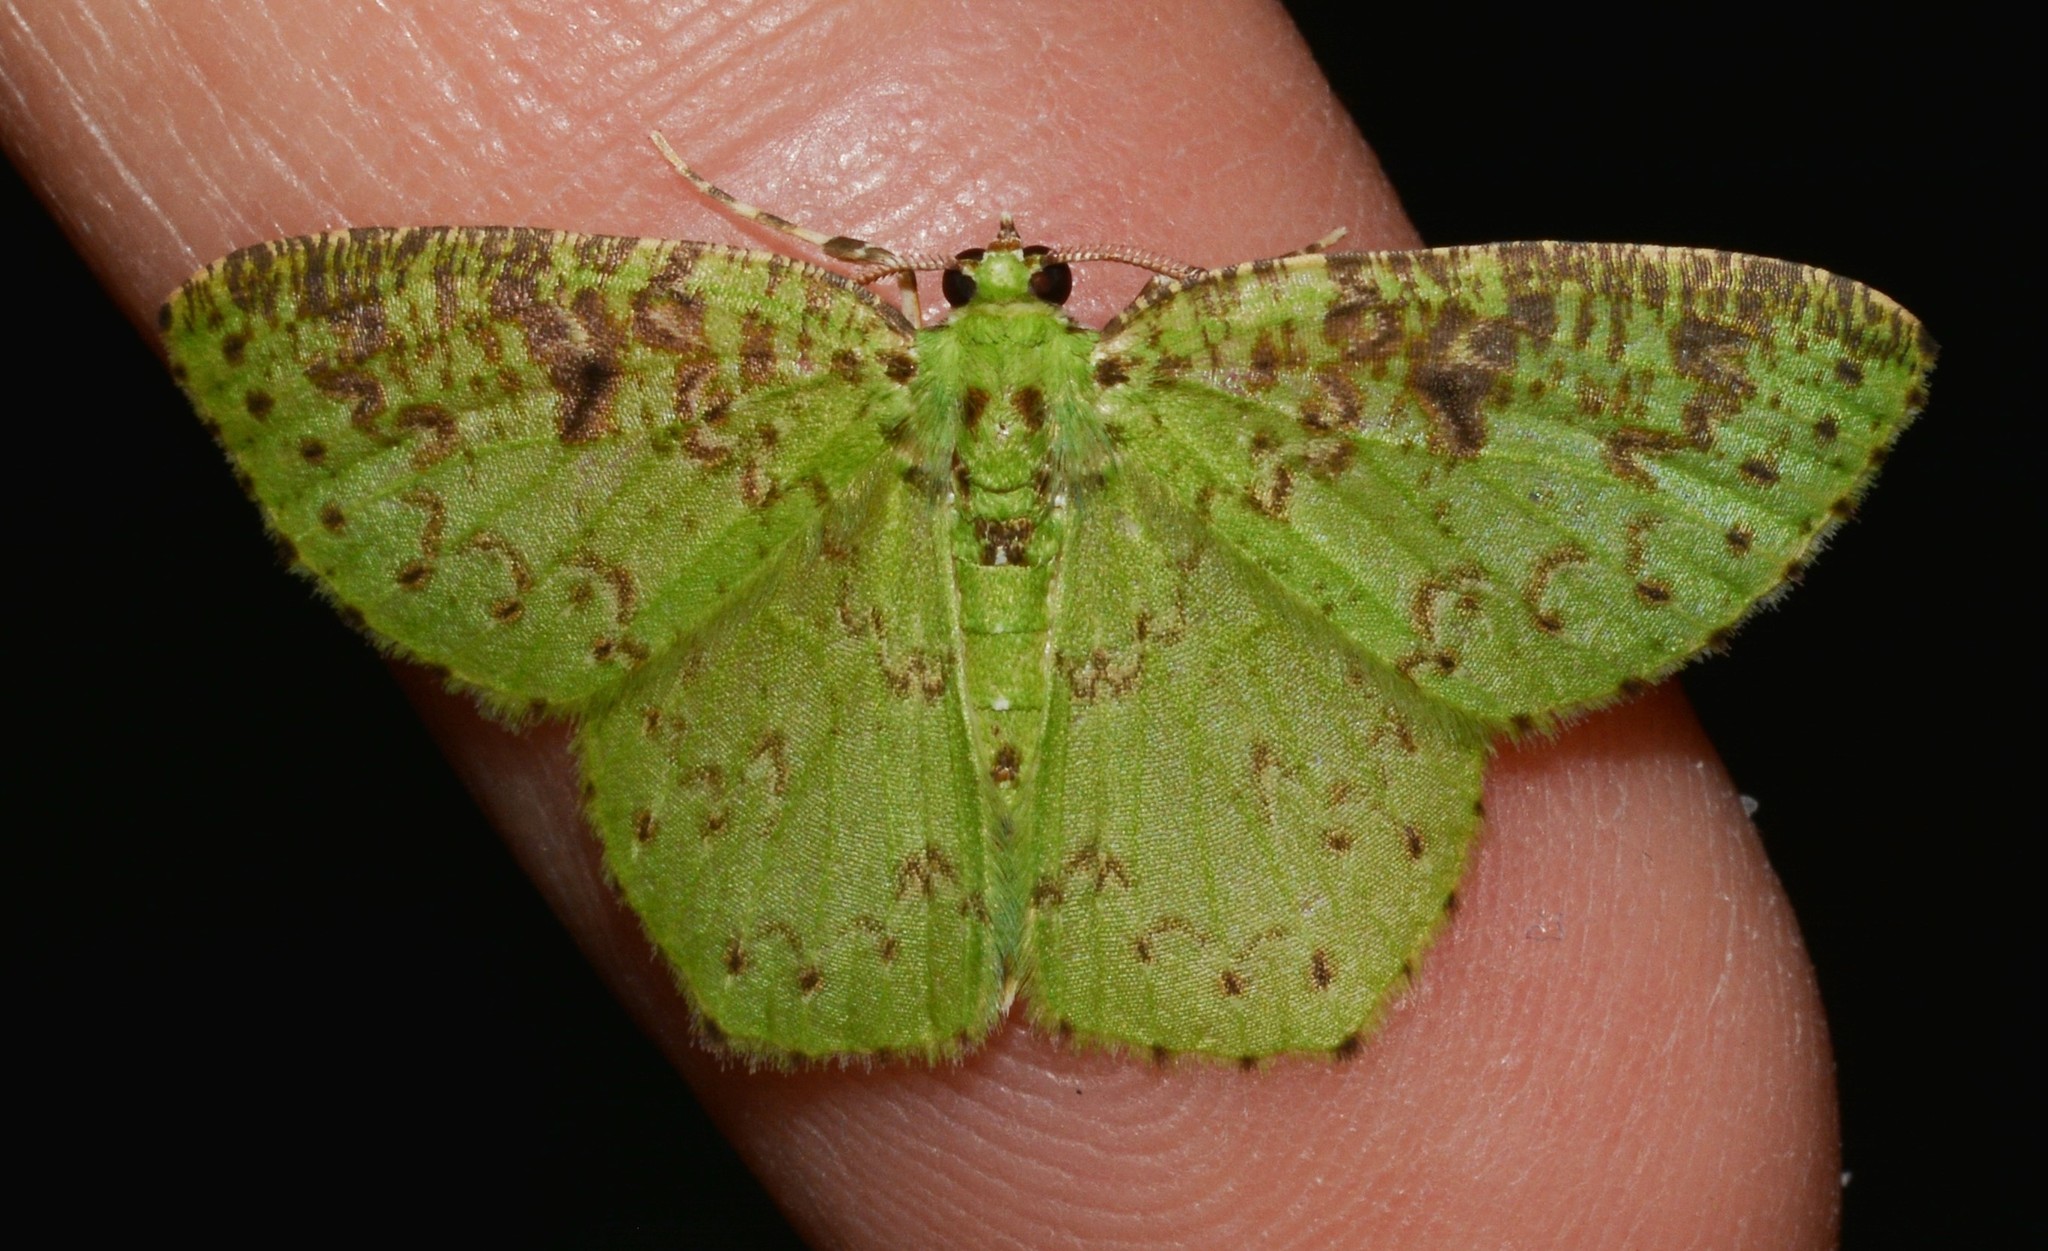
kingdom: Animalia
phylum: Arthropoda
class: Insecta
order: Lepidoptera
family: Geometridae
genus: Nemoria
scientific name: Nemoria tickelli
